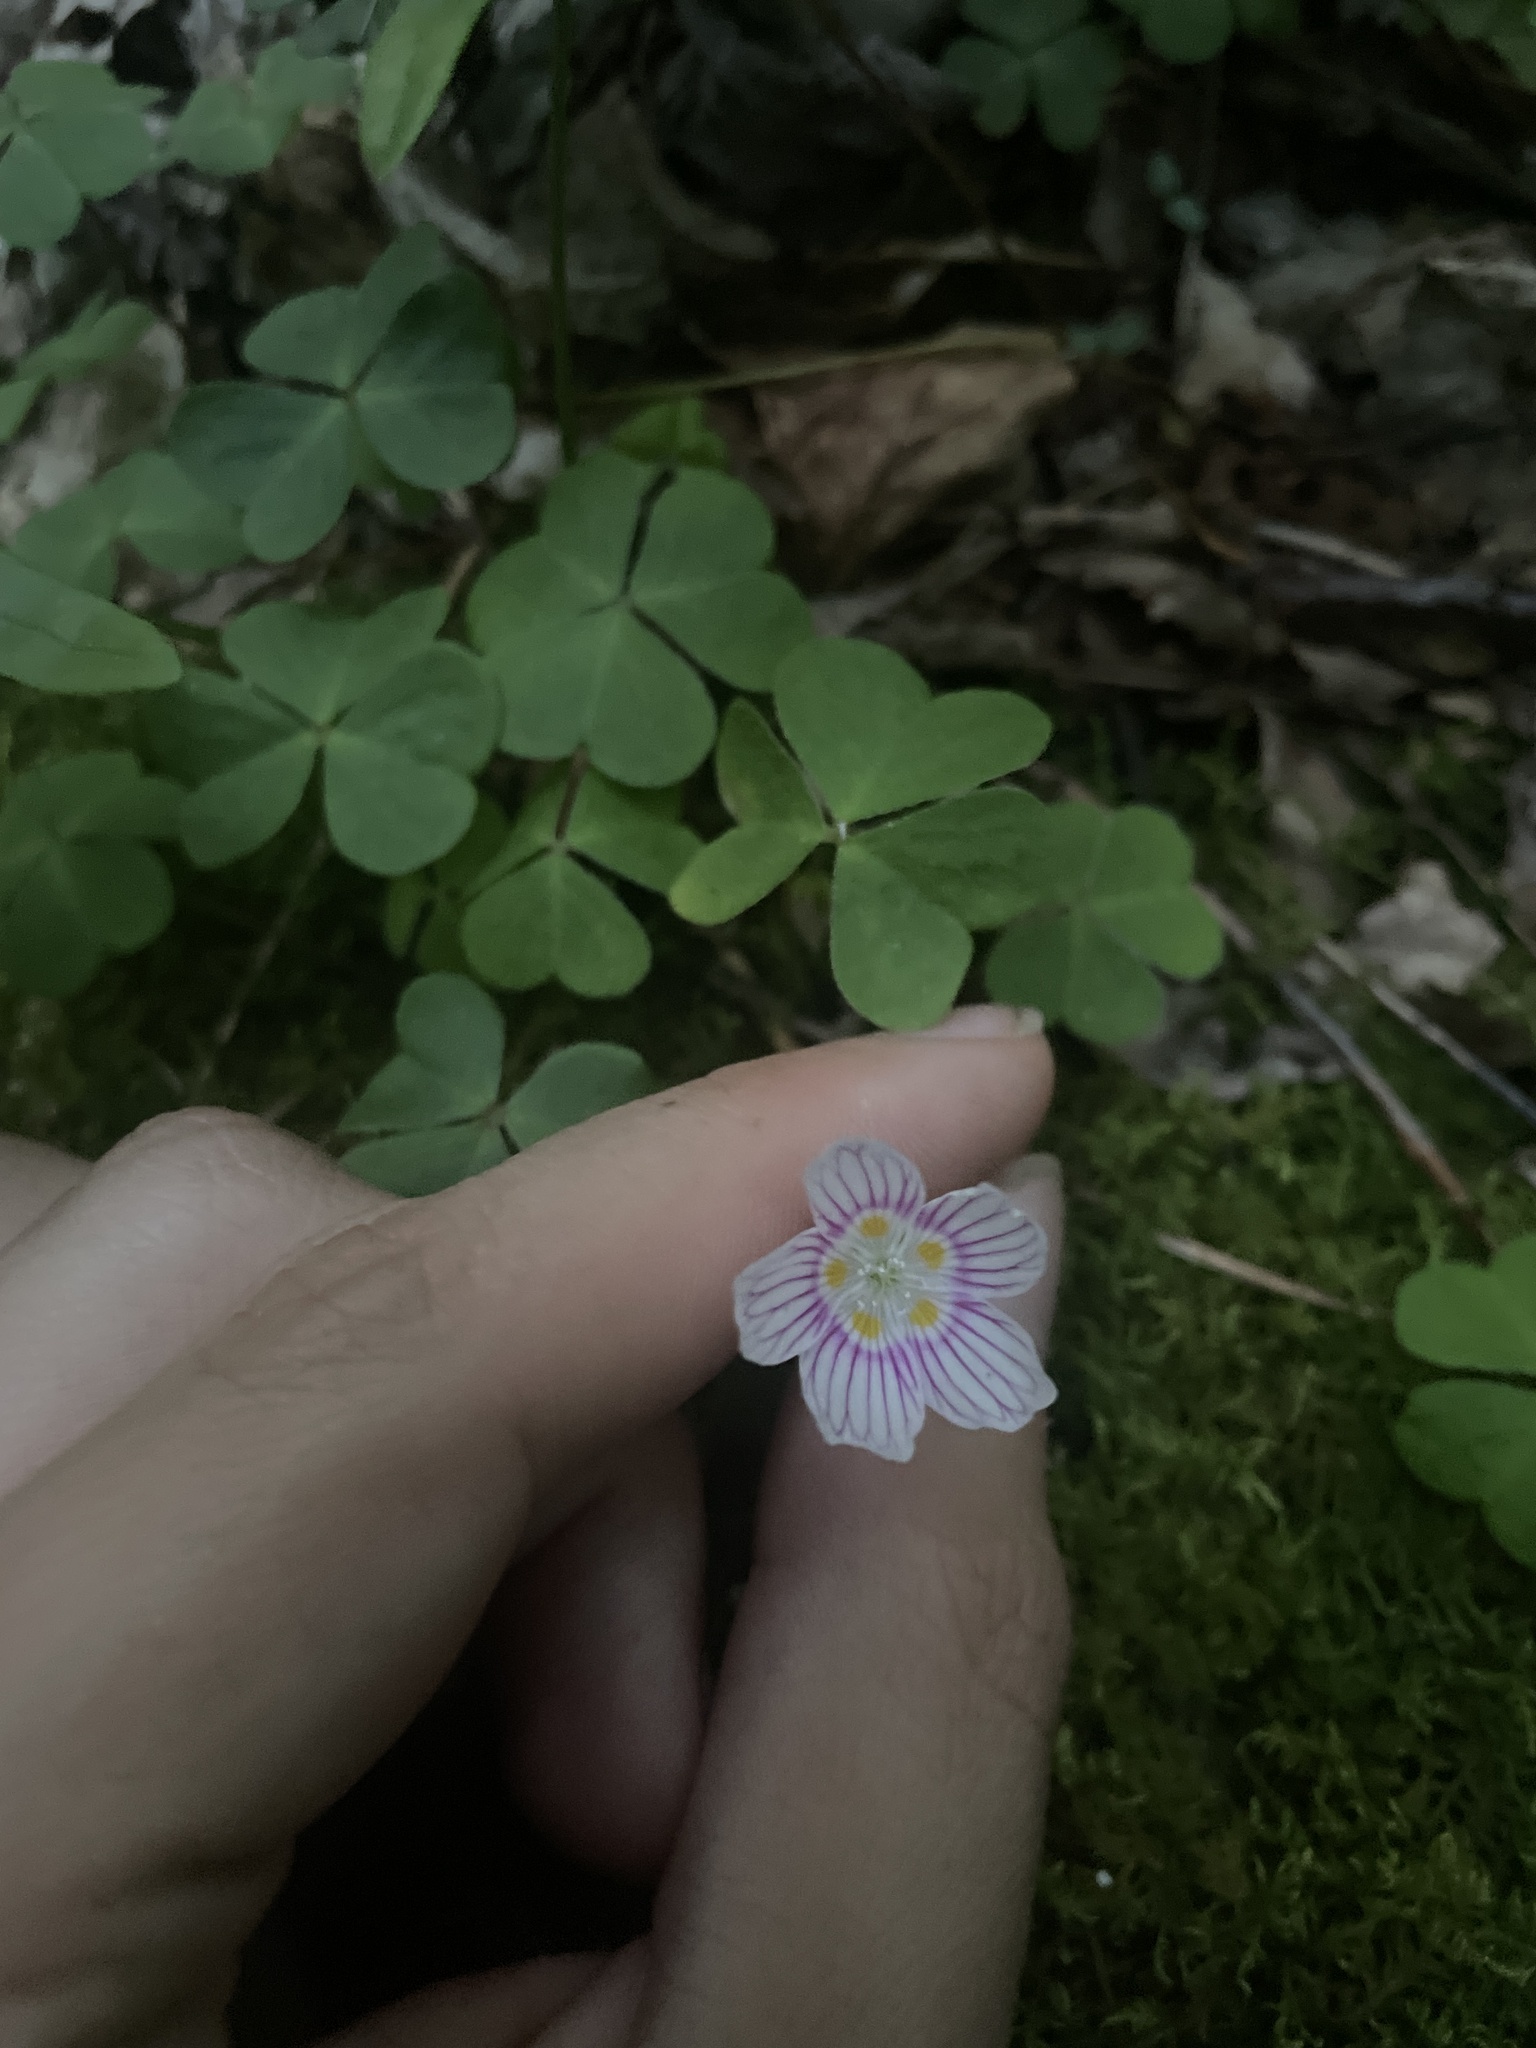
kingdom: Plantae
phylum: Tracheophyta
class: Magnoliopsida
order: Oxalidales
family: Oxalidaceae
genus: Oxalis
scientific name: Oxalis montana
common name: American wood-sorrel
